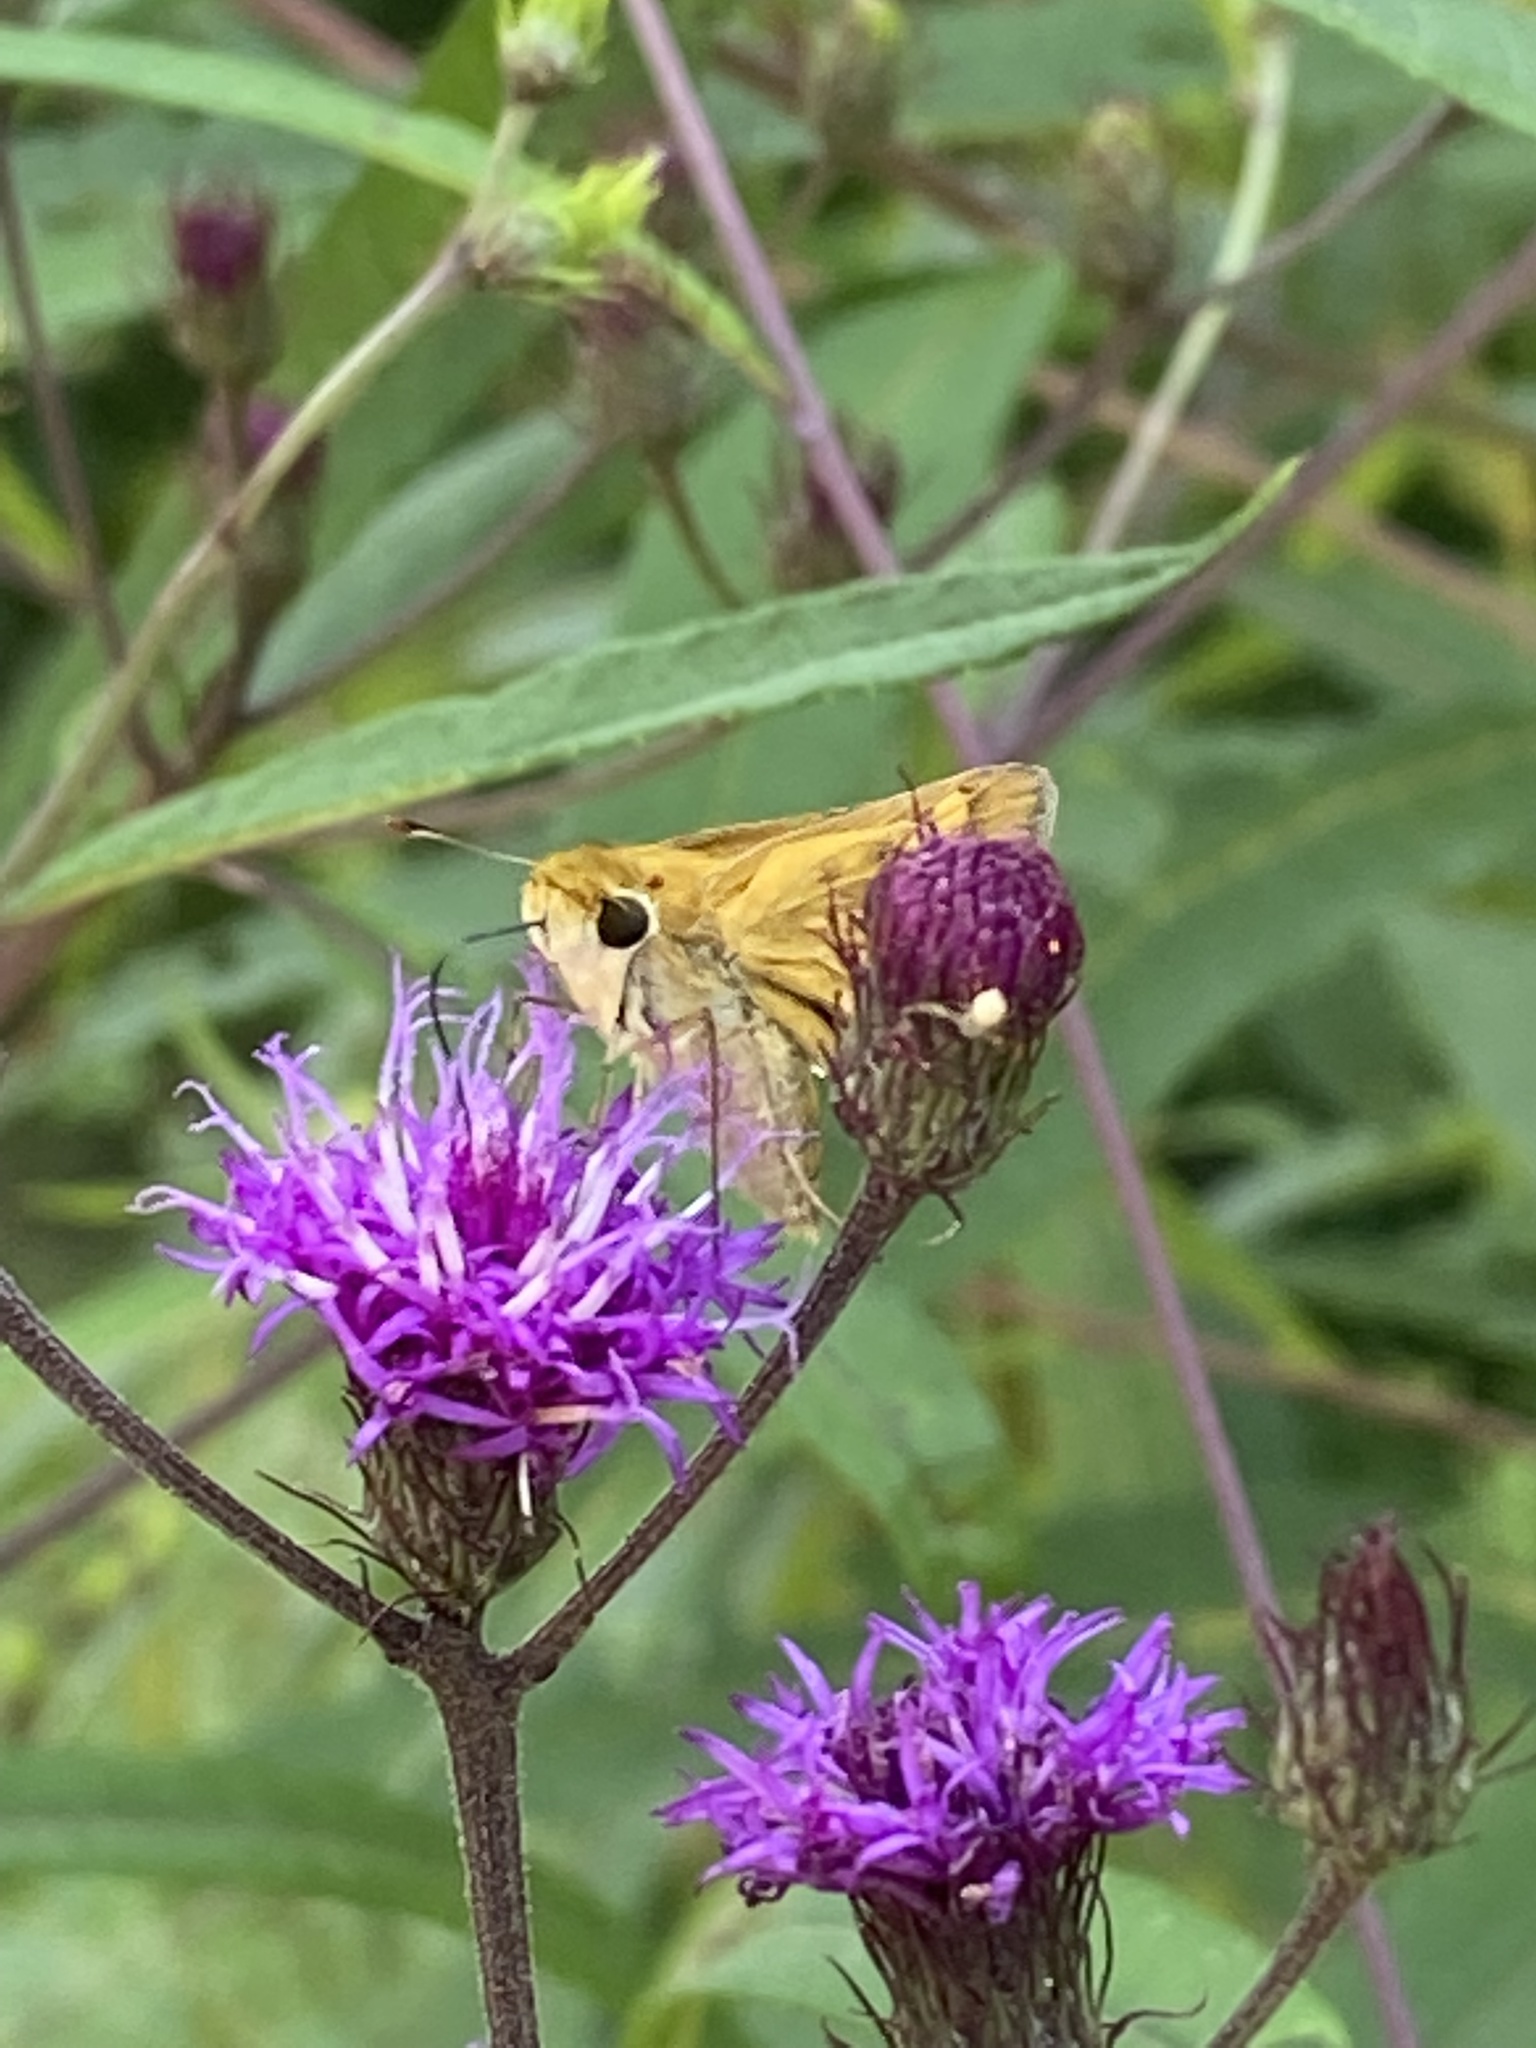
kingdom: Animalia
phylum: Arthropoda
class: Insecta
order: Lepidoptera
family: Hesperiidae
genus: Hylephila
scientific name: Hylephila phyleus
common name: Fiery skipper
